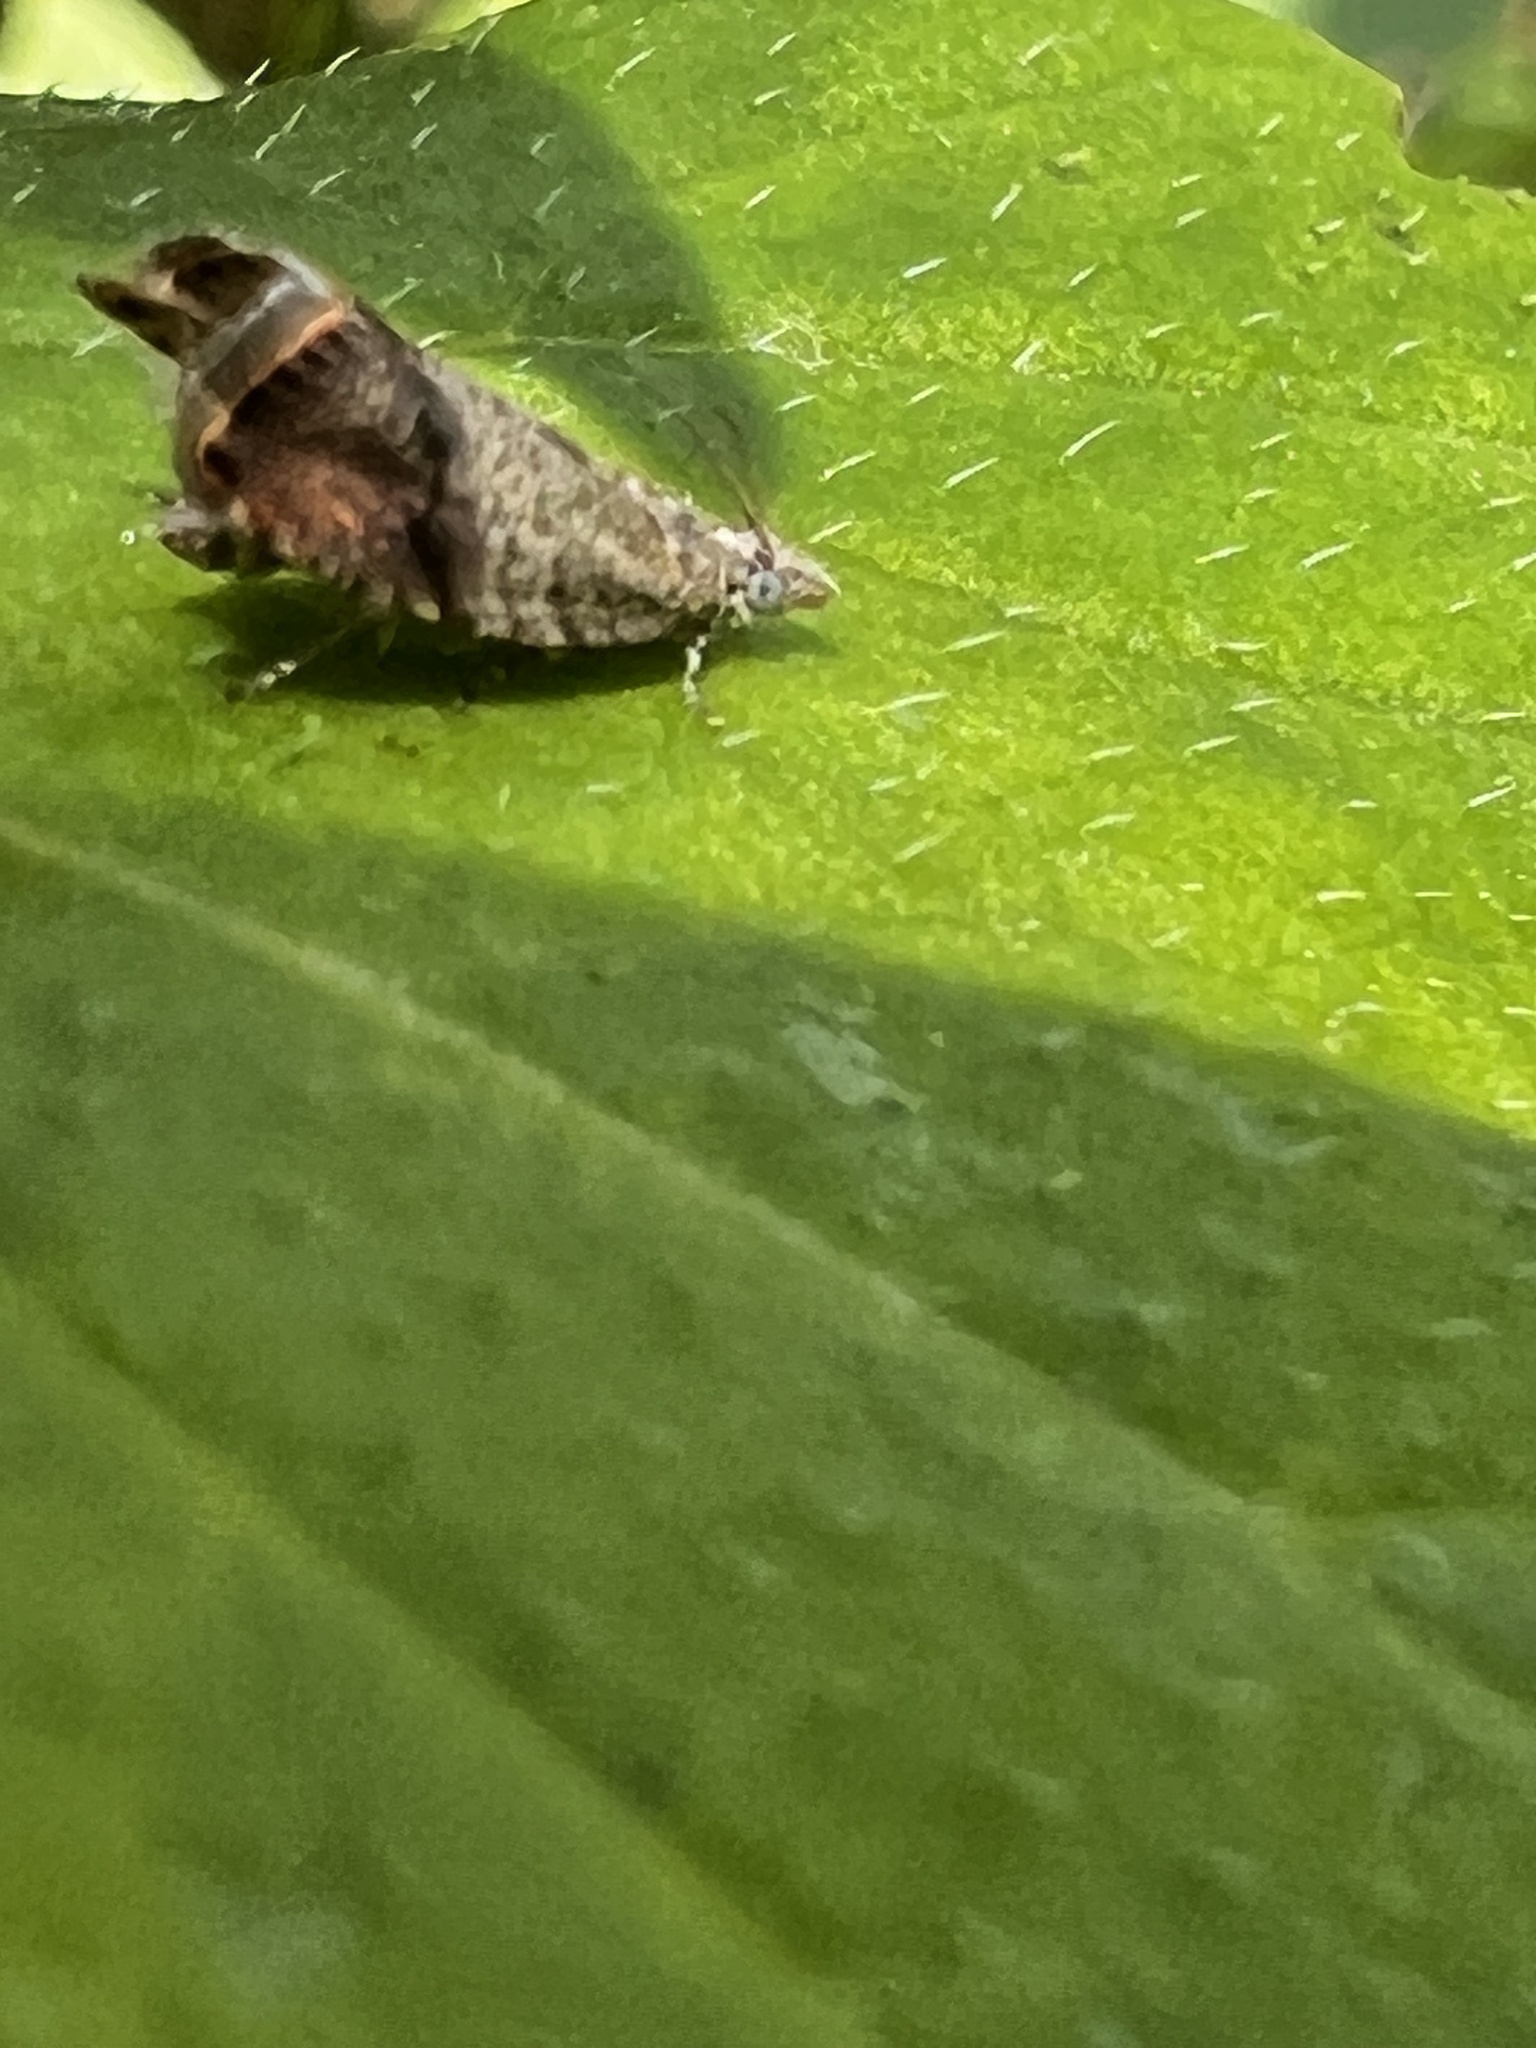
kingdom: Animalia
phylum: Arthropoda
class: Insecta
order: Lepidoptera
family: Tortricidae
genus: Talponia
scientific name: Talponia plummeriana
